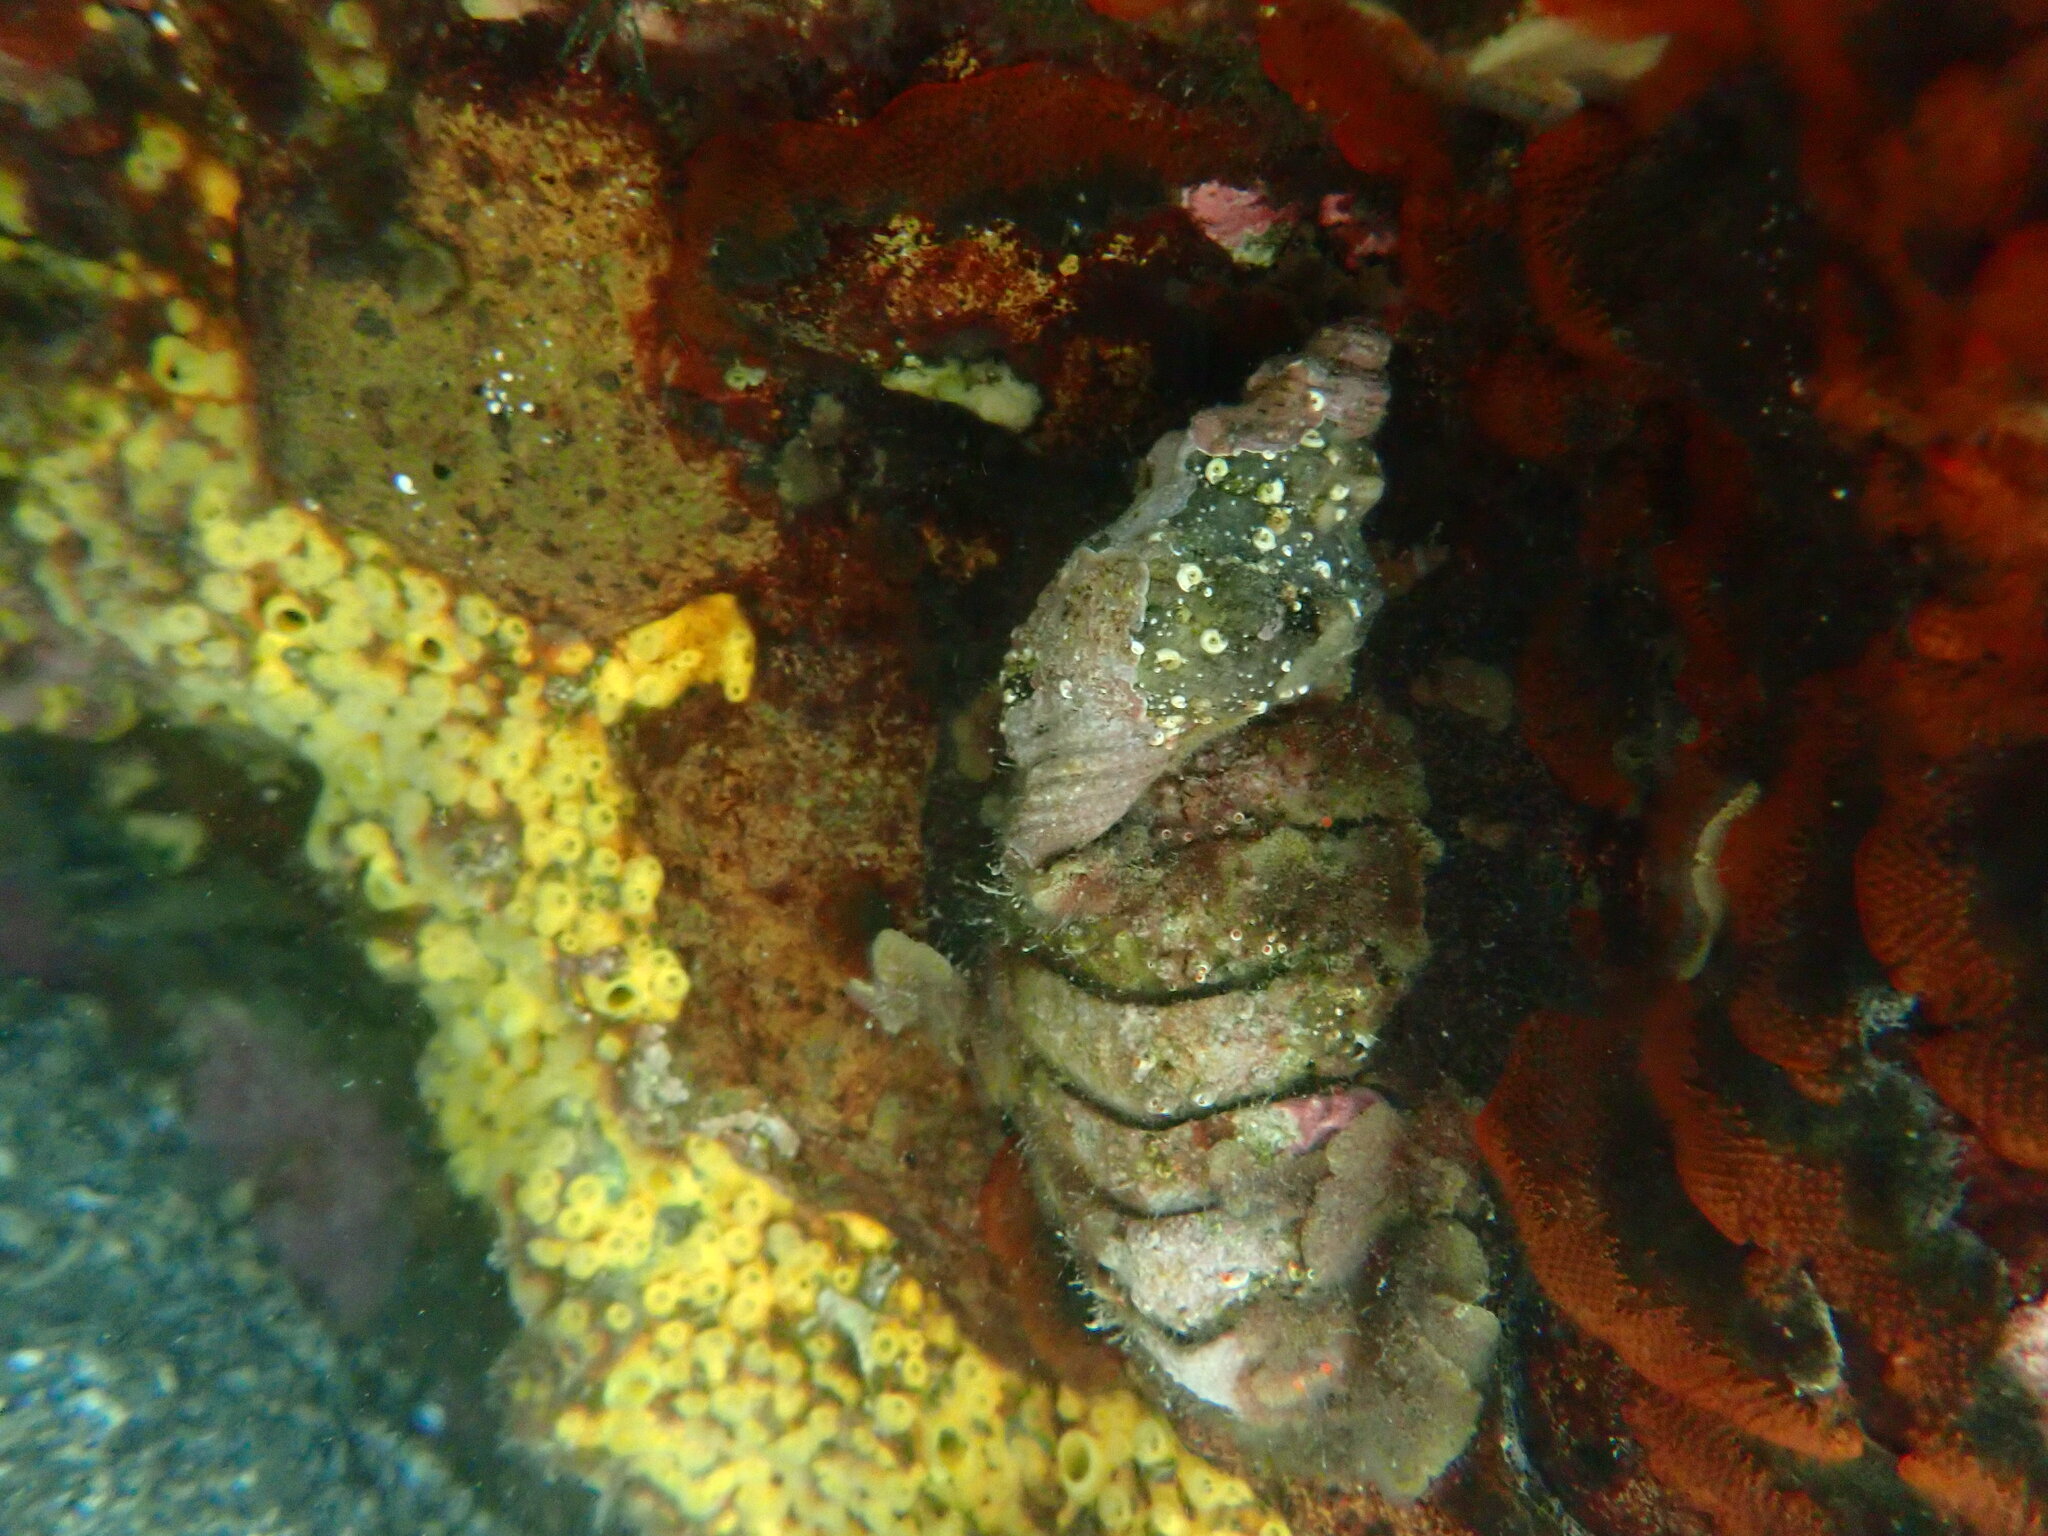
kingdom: Animalia
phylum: Mollusca
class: Gastropoda
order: Littorinimorpha
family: Cymatiidae
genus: Cabestana
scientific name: Cabestana spengleri
